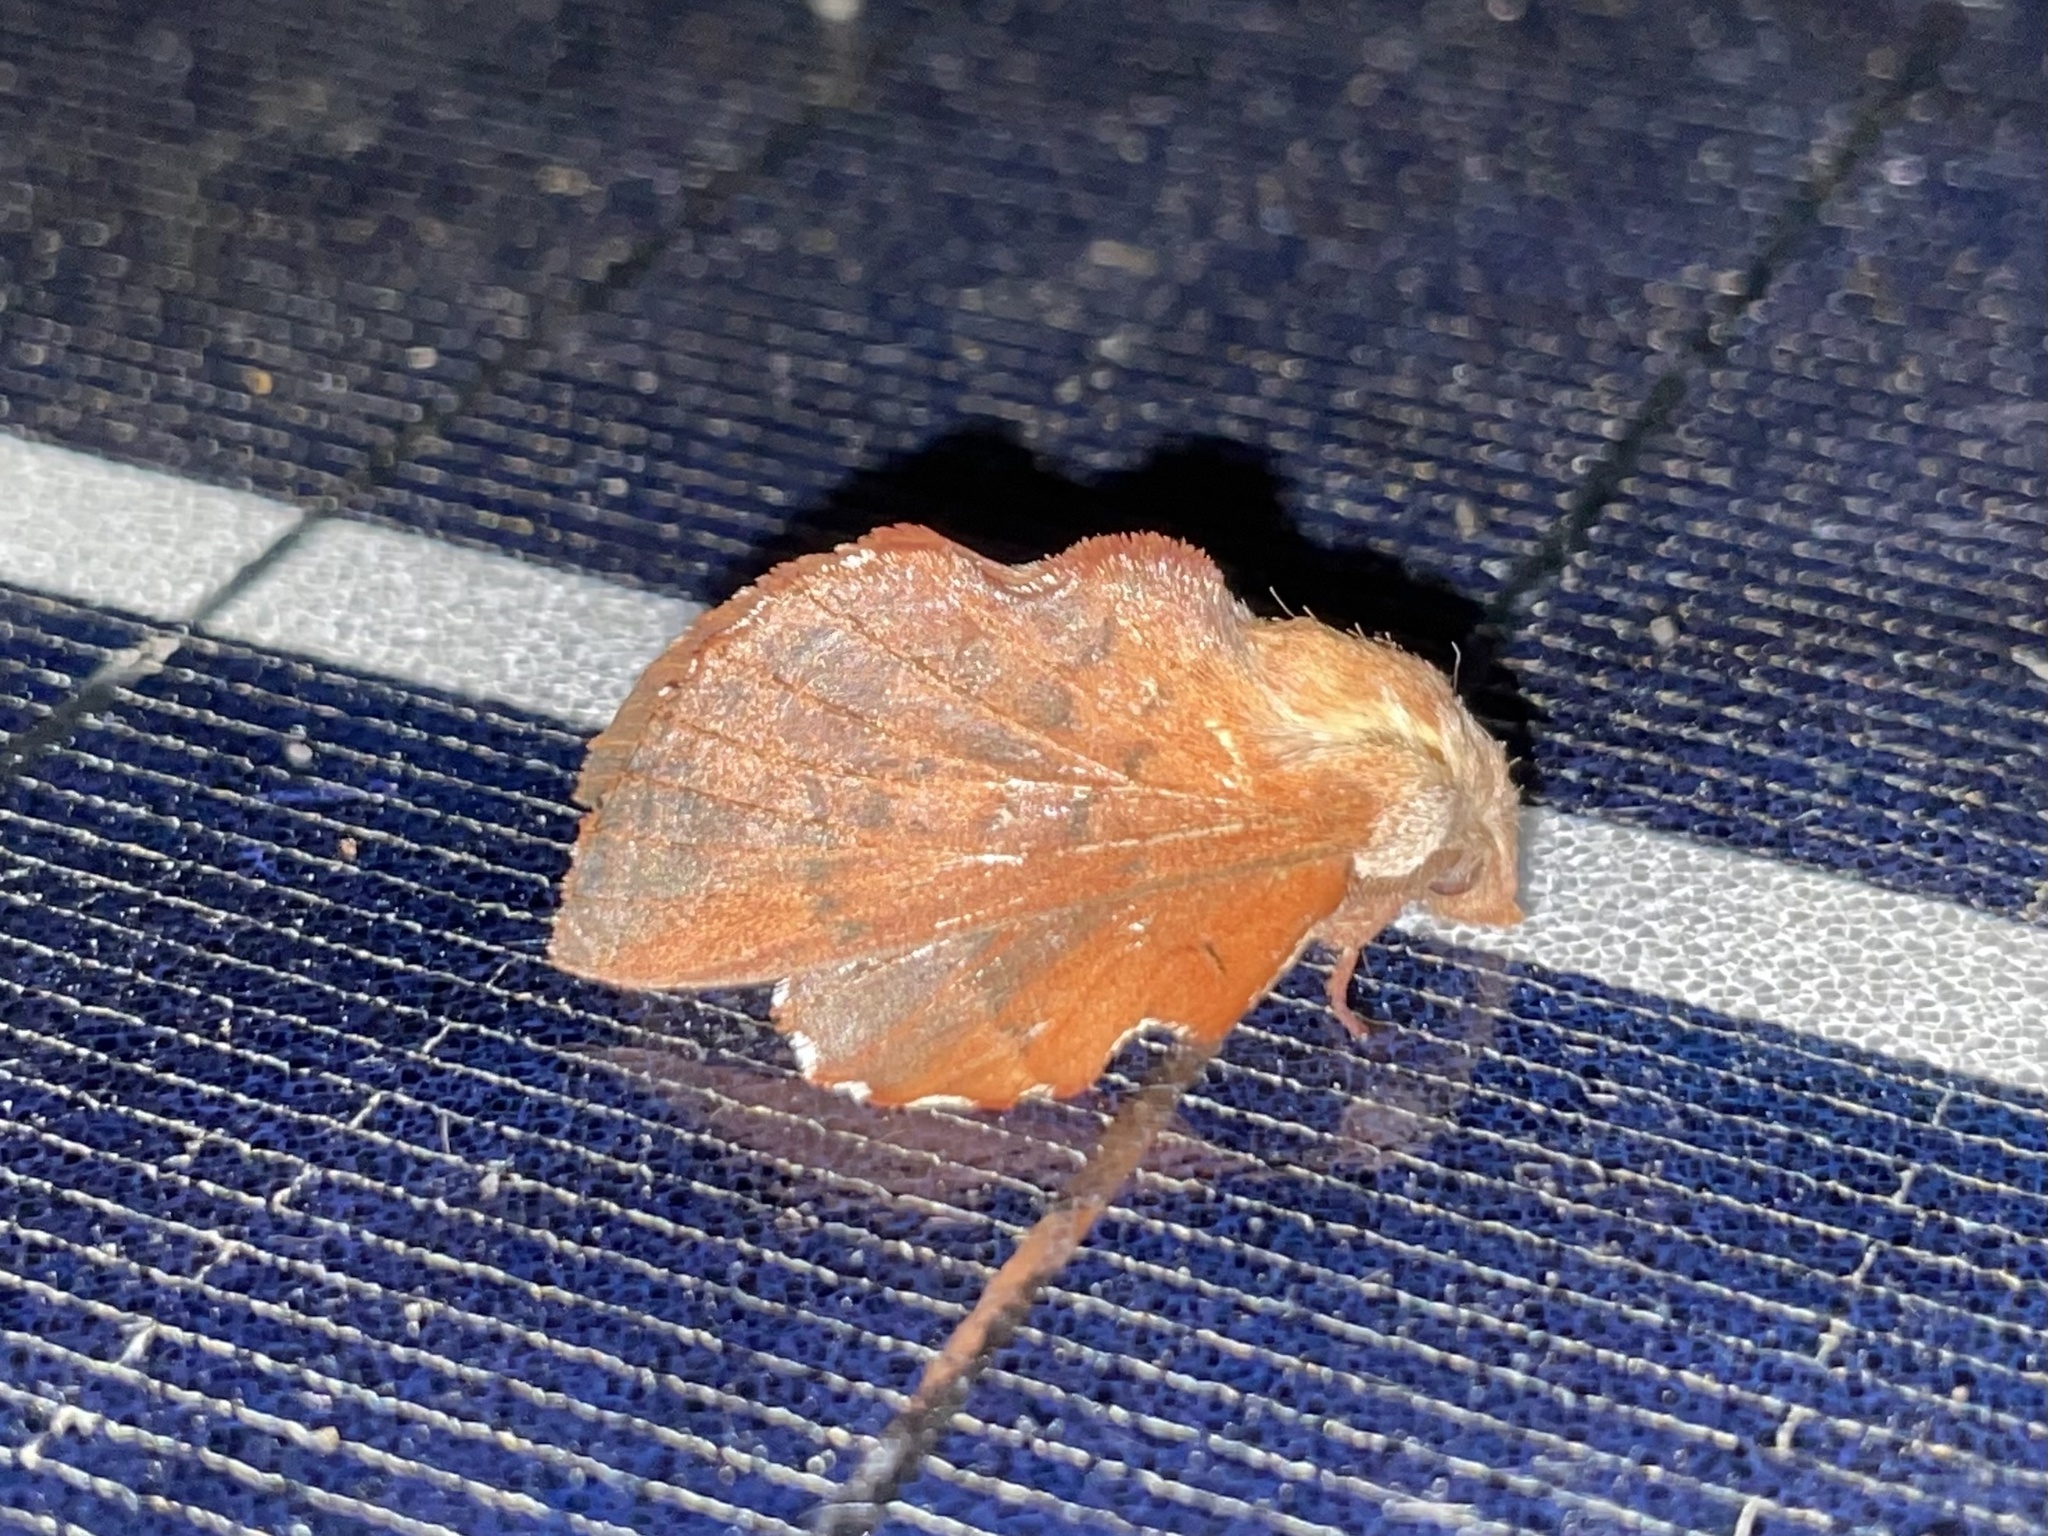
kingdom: Animalia
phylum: Arthropoda
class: Insecta
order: Lepidoptera
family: Lasiocampidae
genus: Phyllodesma
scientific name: Phyllodesma americana
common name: American lappet moth
